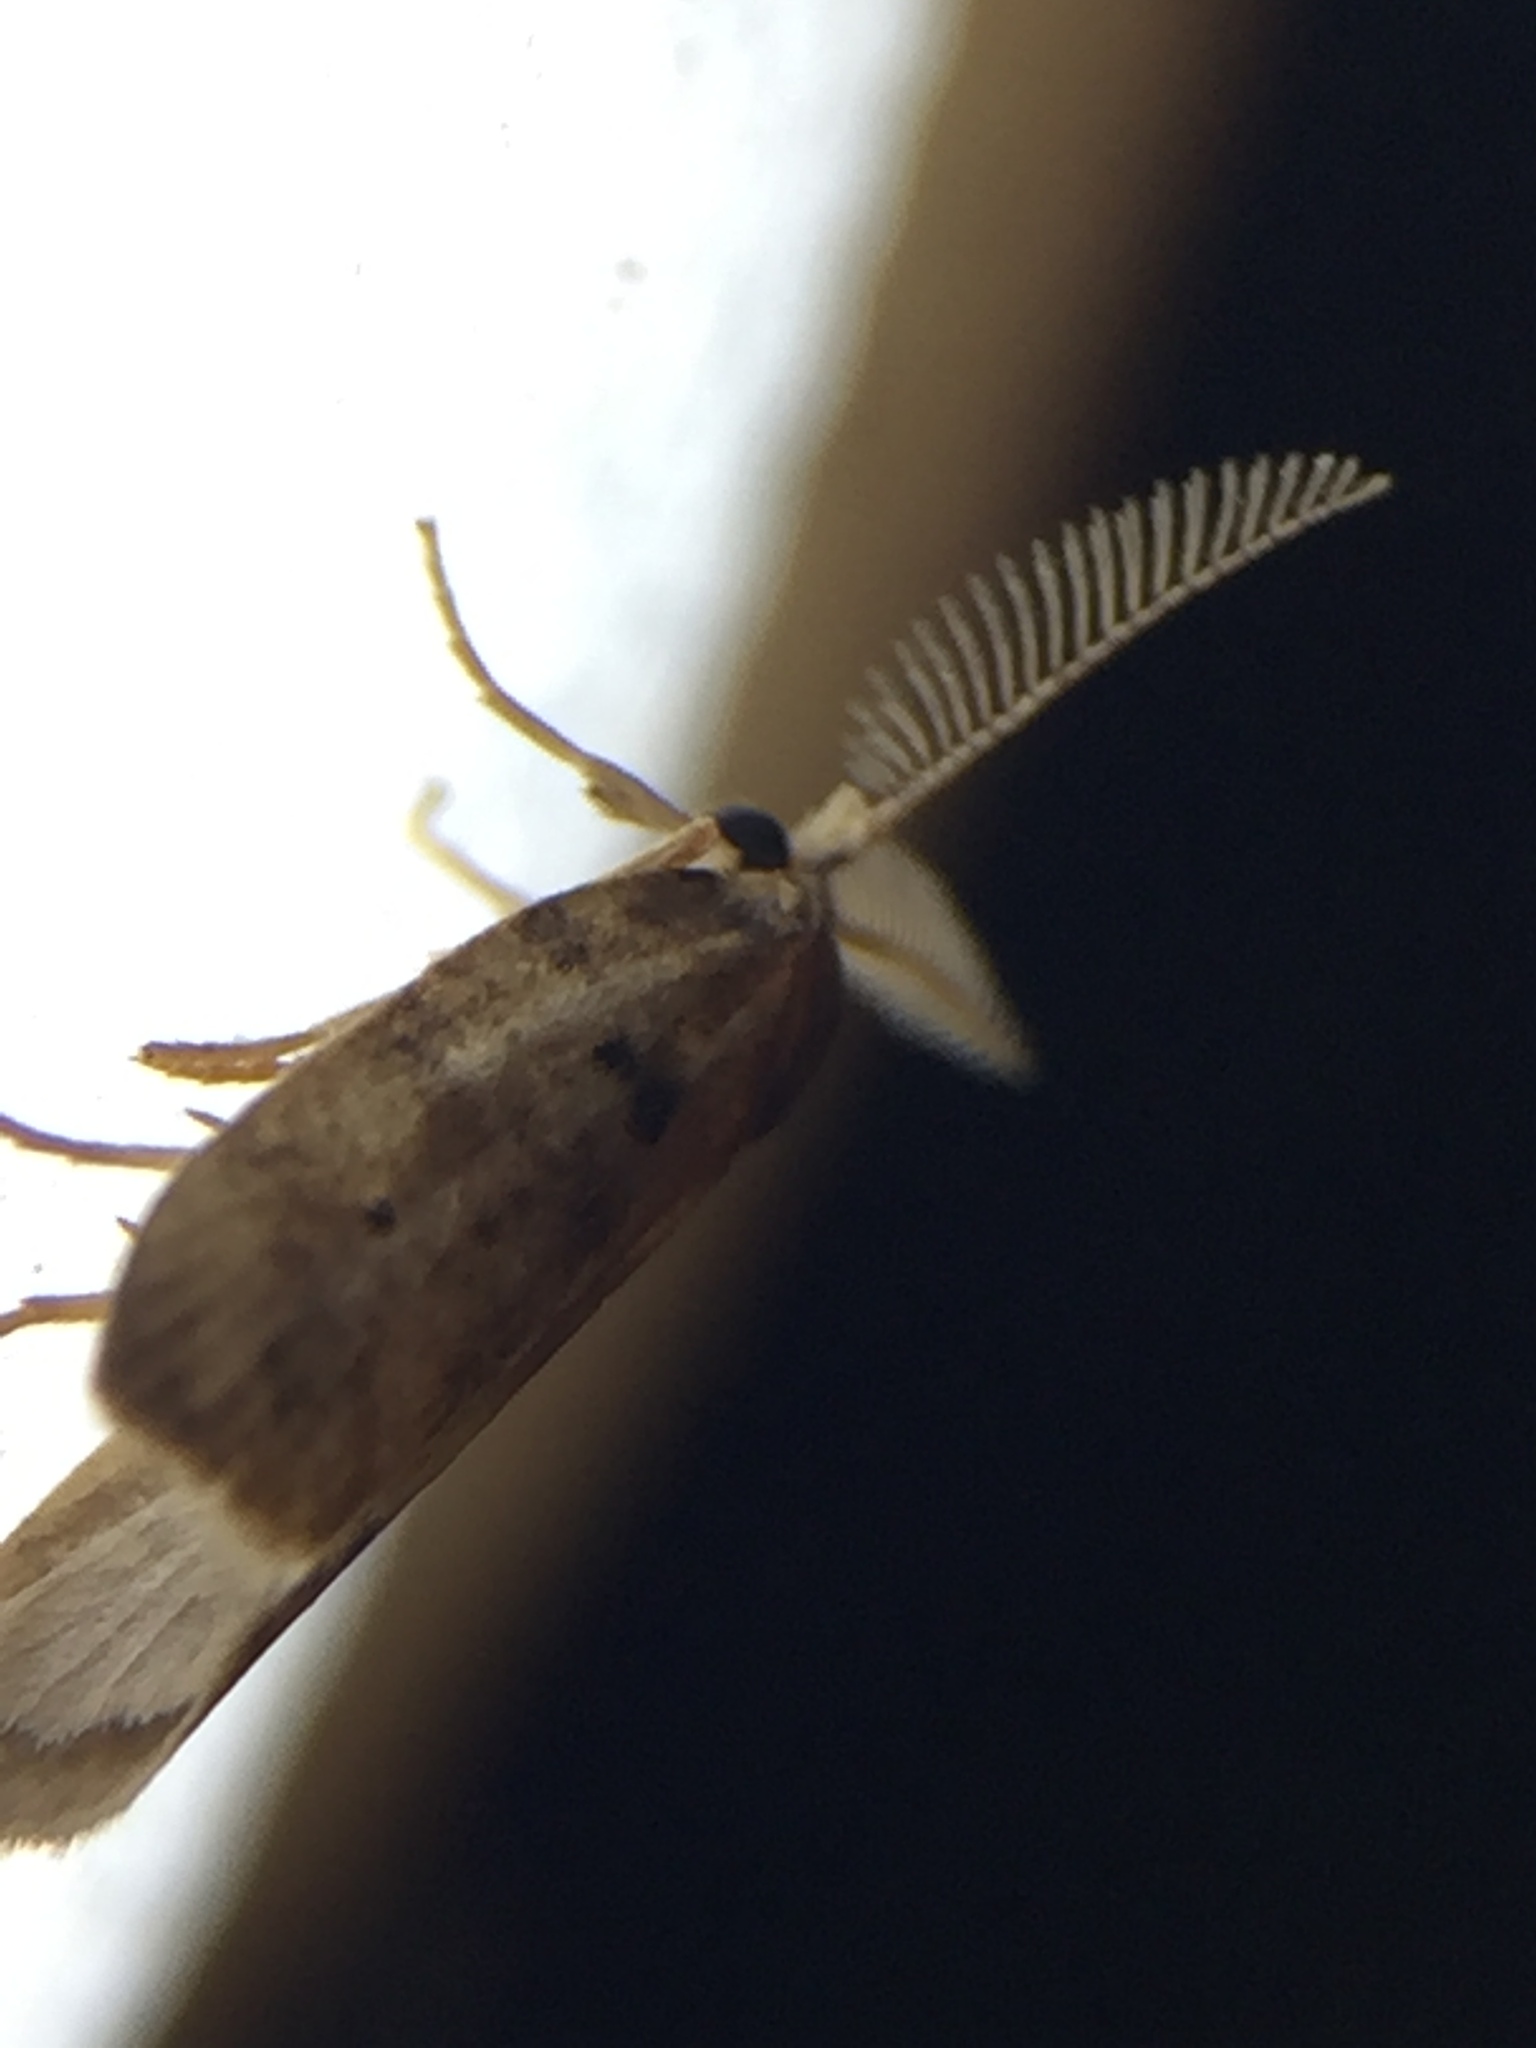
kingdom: Animalia
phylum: Arthropoda
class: Insecta
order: Lepidoptera
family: Galacticidae
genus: Tanaoctena
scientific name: Tanaoctena dubia
